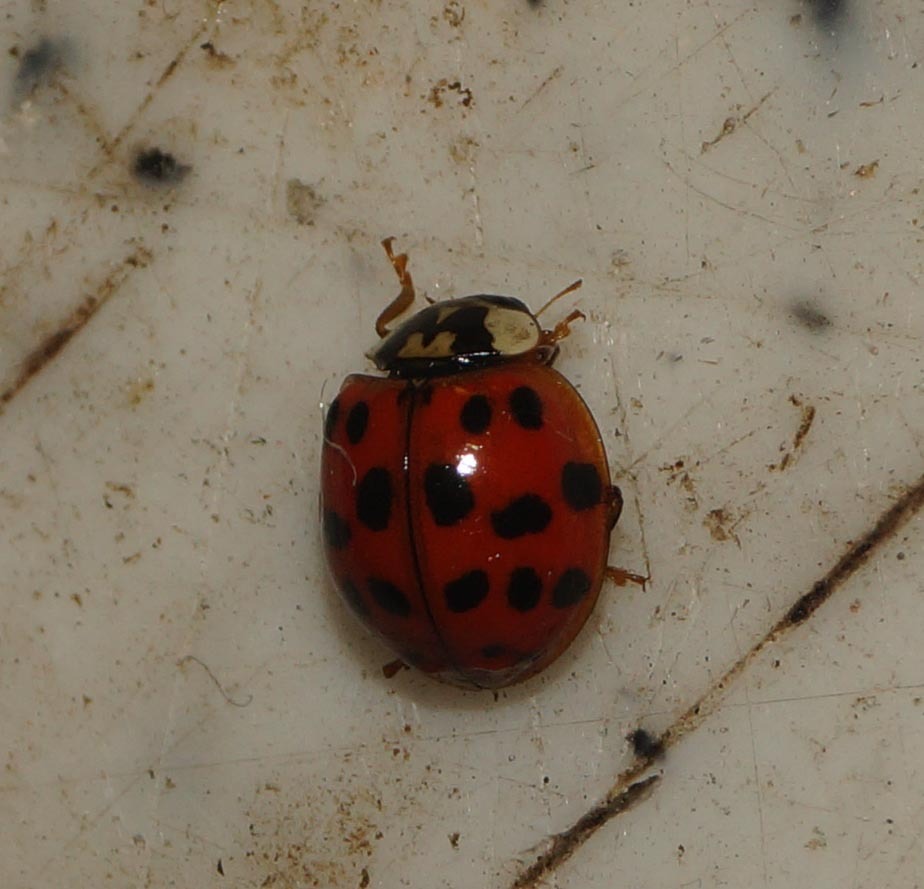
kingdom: Animalia
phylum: Arthropoda
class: Insecta
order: Coleoptera
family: Coccinellidae
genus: Harmonia
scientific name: Harmonia axyridis
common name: Harlequin ladybird
